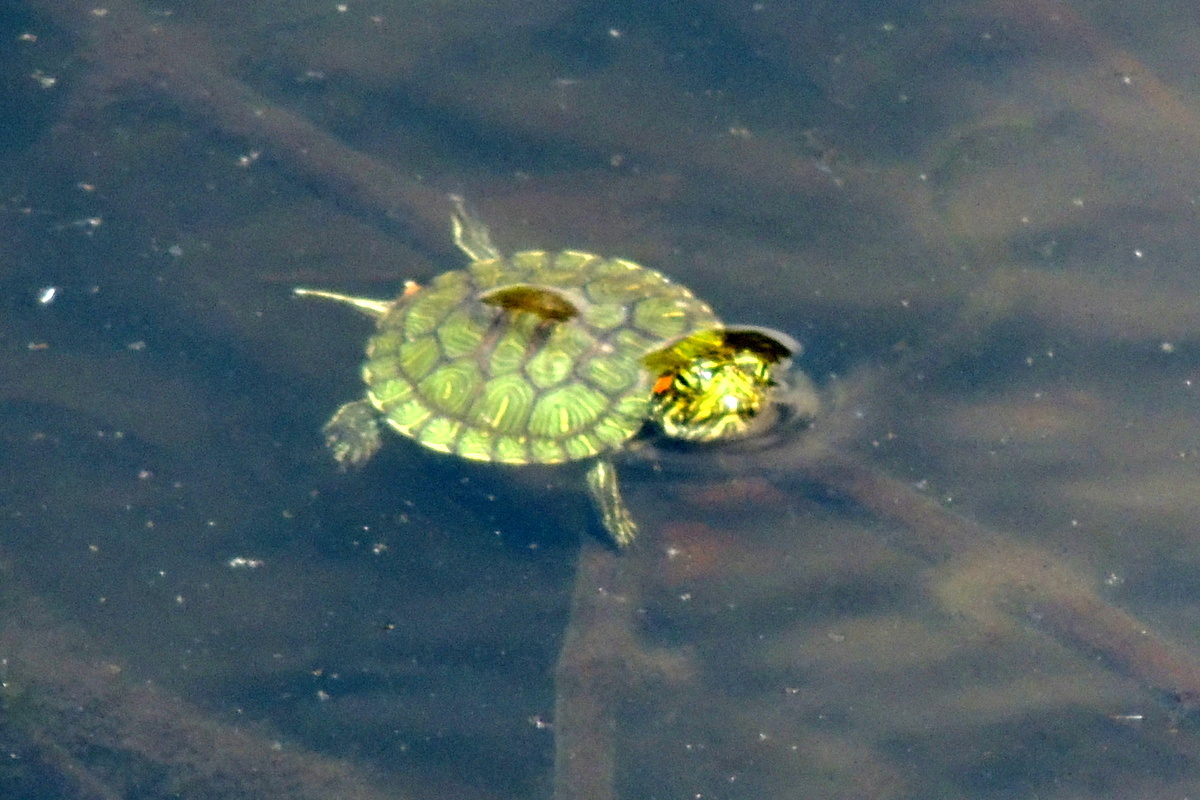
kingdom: Animalia
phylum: Chordata
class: Testudines
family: Emydidae
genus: Trachemys
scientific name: Trachemys scripta
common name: Slider
